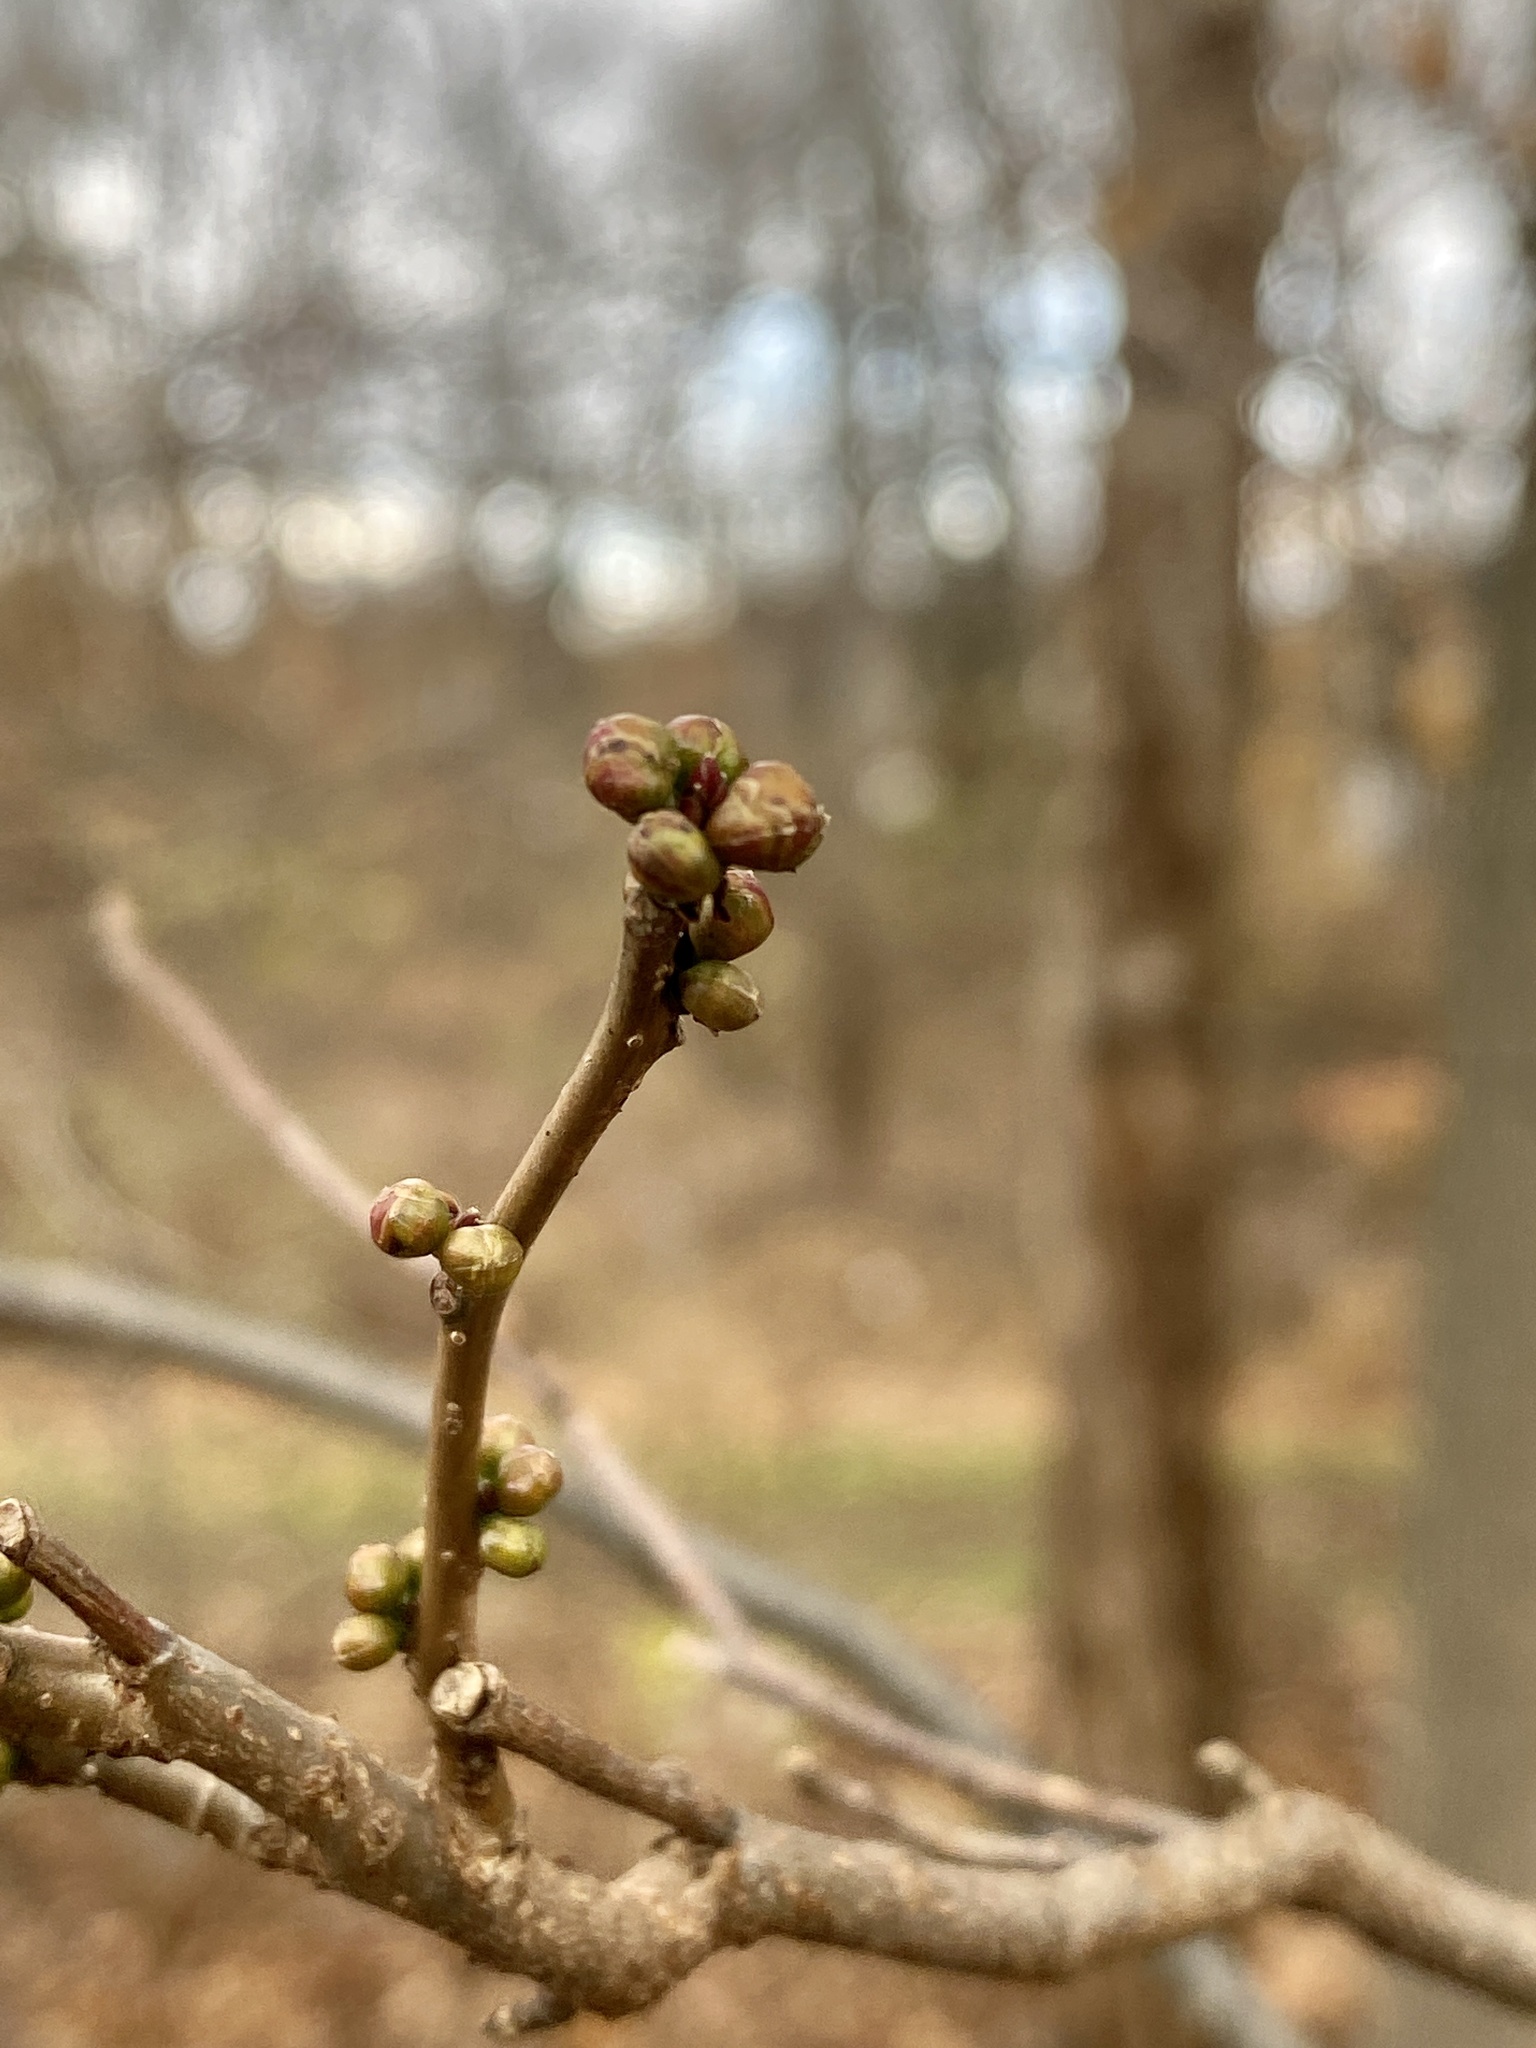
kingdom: Plantae
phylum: Tracheophyta
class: Magnoliopsida
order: Laurales
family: Lauraceae
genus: Lindera
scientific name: Lindera benzoin
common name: Spicebush
